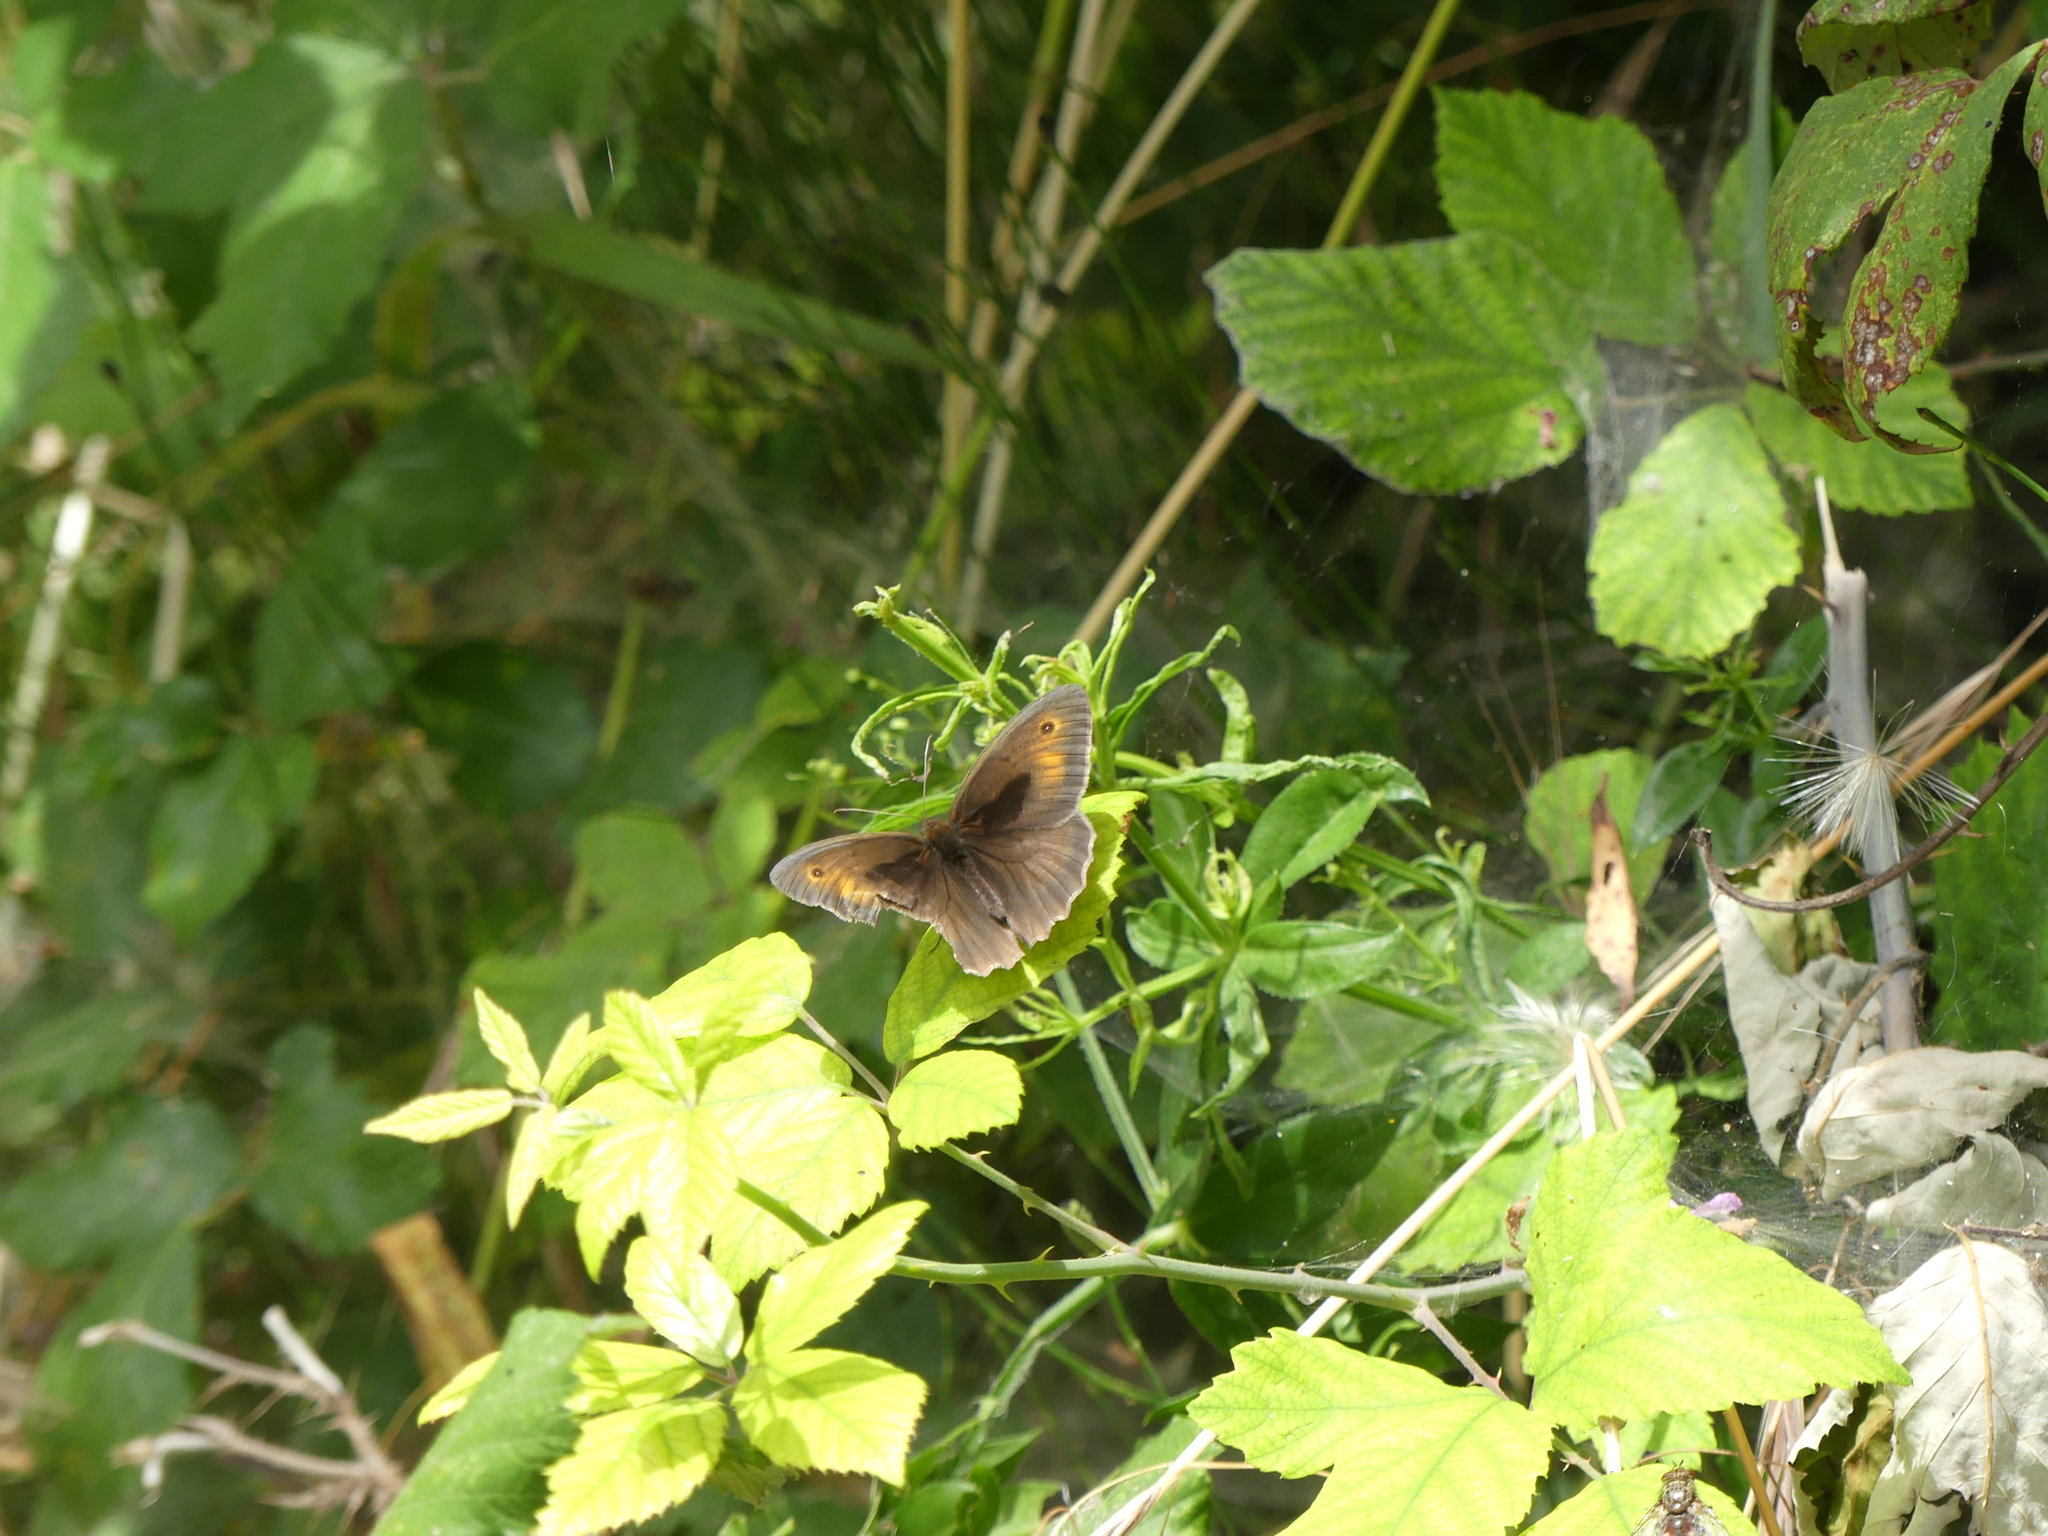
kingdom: Animalia
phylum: Arthropoda
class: Insecta
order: Lepidoptera
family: Nymphalidae
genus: Maniola
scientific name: Maniola jurtina
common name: Meadow brown
